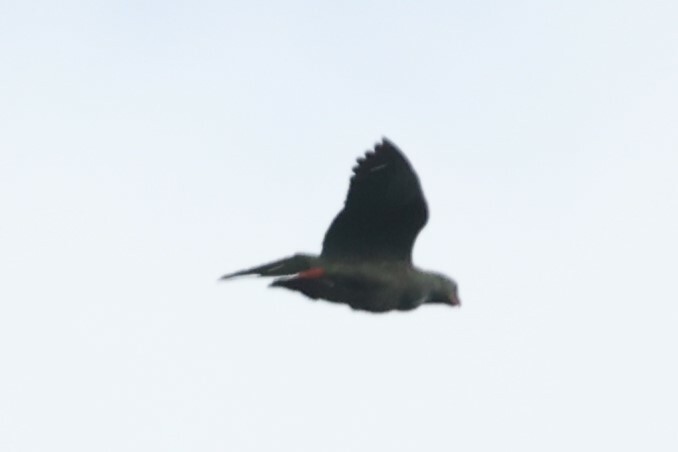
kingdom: Animalia
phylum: Chordata
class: Aves
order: Psittaciformes
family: Psittacidae
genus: Pionus
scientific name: Pionus sordidus
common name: Red-billed parrot
